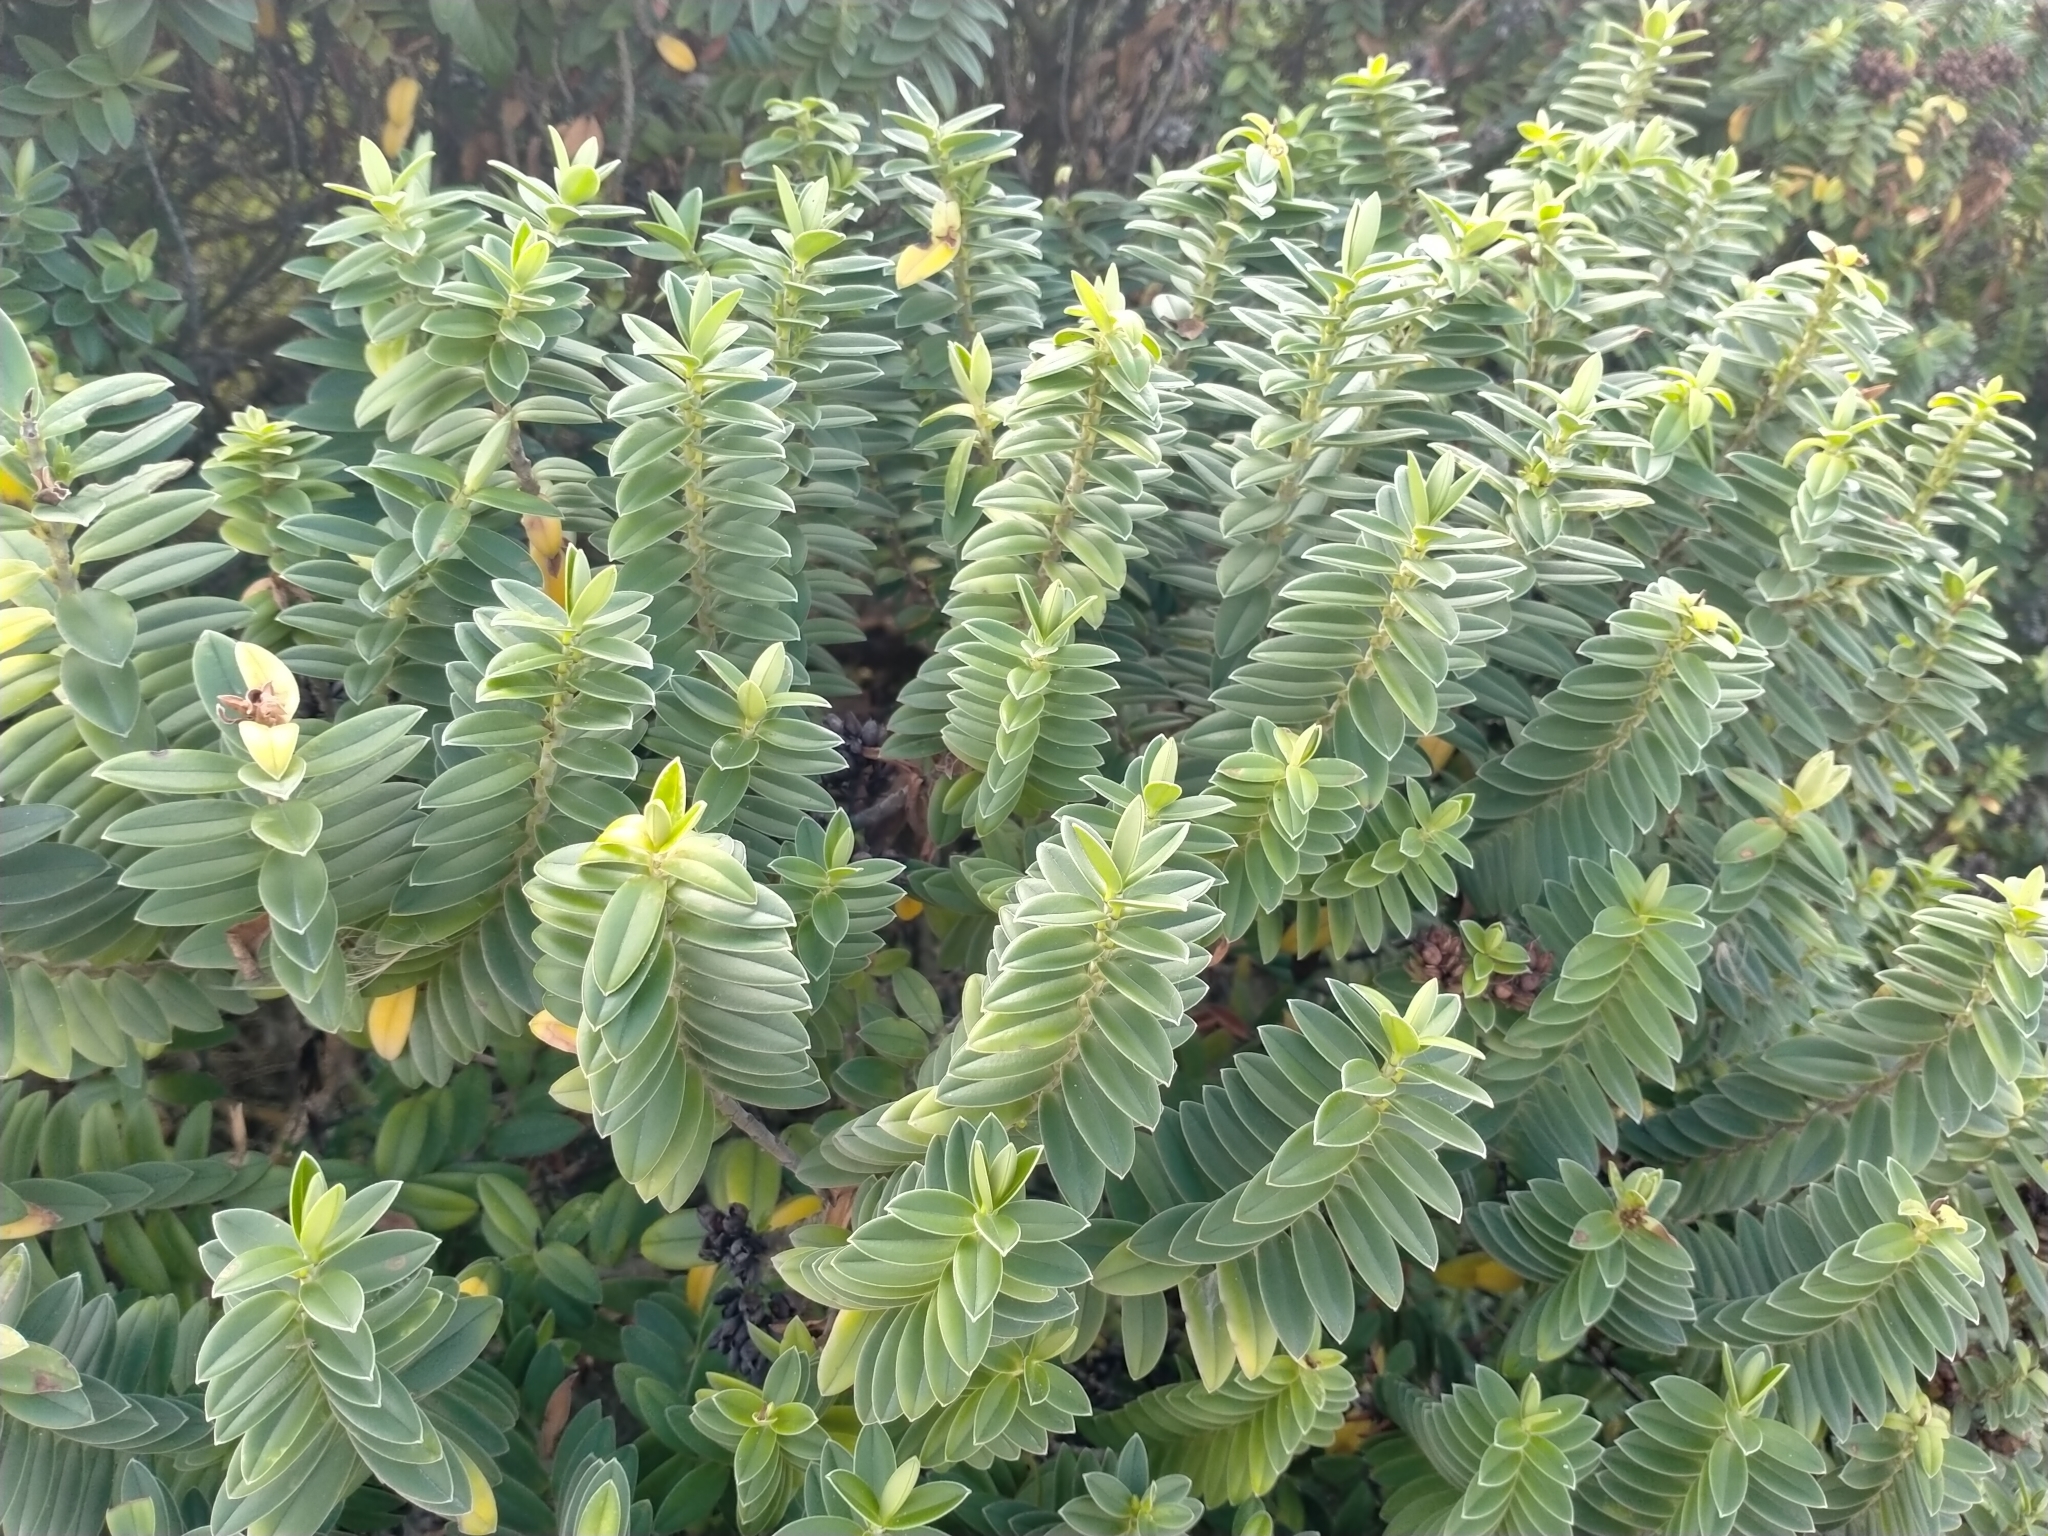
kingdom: Plantae
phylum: Tracheophyta
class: Magnoliopsida
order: Lamiales
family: Plantaginaceae
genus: Veronica
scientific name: Veronica elliptica
